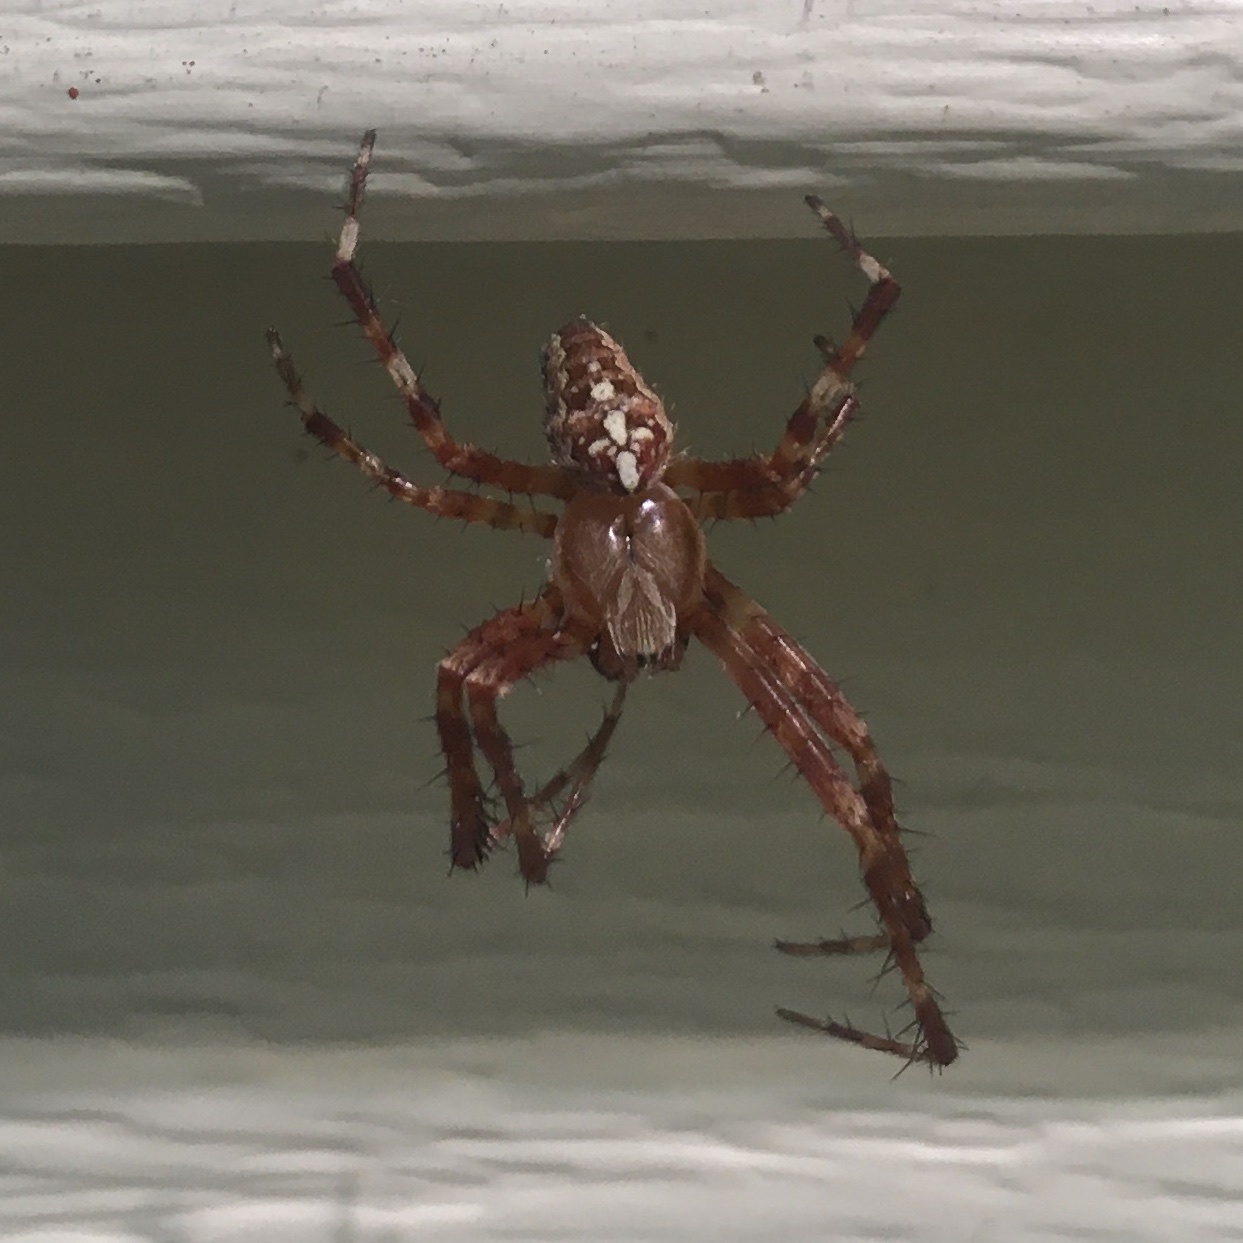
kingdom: Animalia
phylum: Arthropoda
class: Arachnida
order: Araneae
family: Araneidae
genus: Araneus
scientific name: Araneus diadematus
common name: Cross orbweaver
